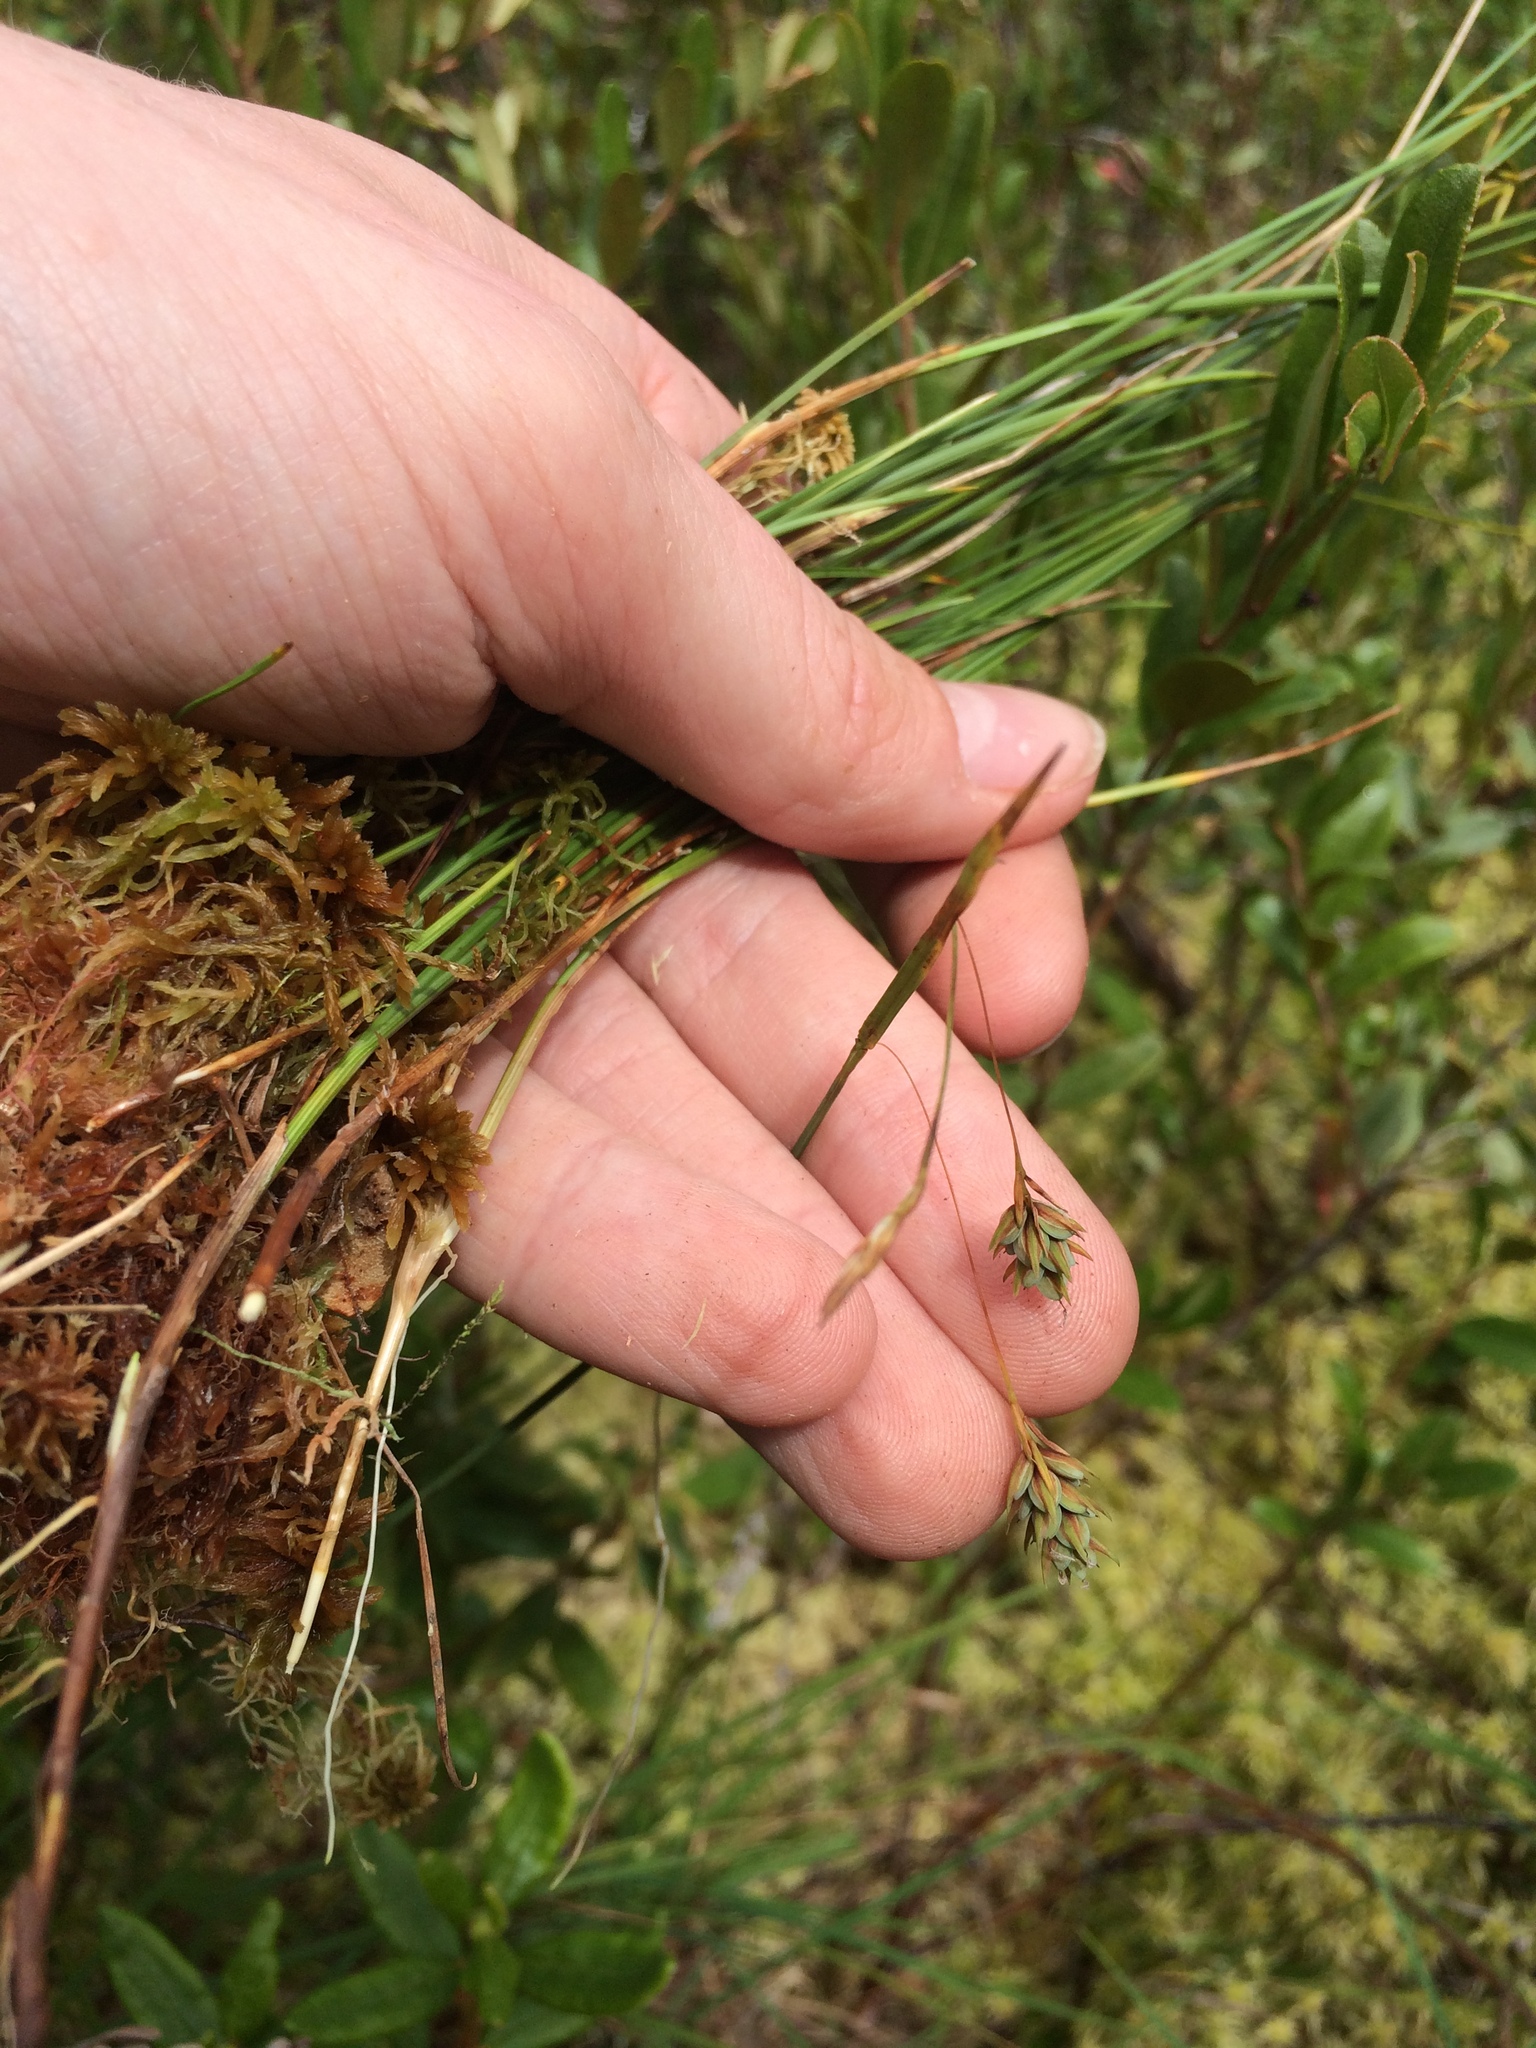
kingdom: Plantae
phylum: Tracheophyta
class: Liliopsida
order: Poales
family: Cyperaceae
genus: Carex
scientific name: Carex magellanica
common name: Bog sedge
